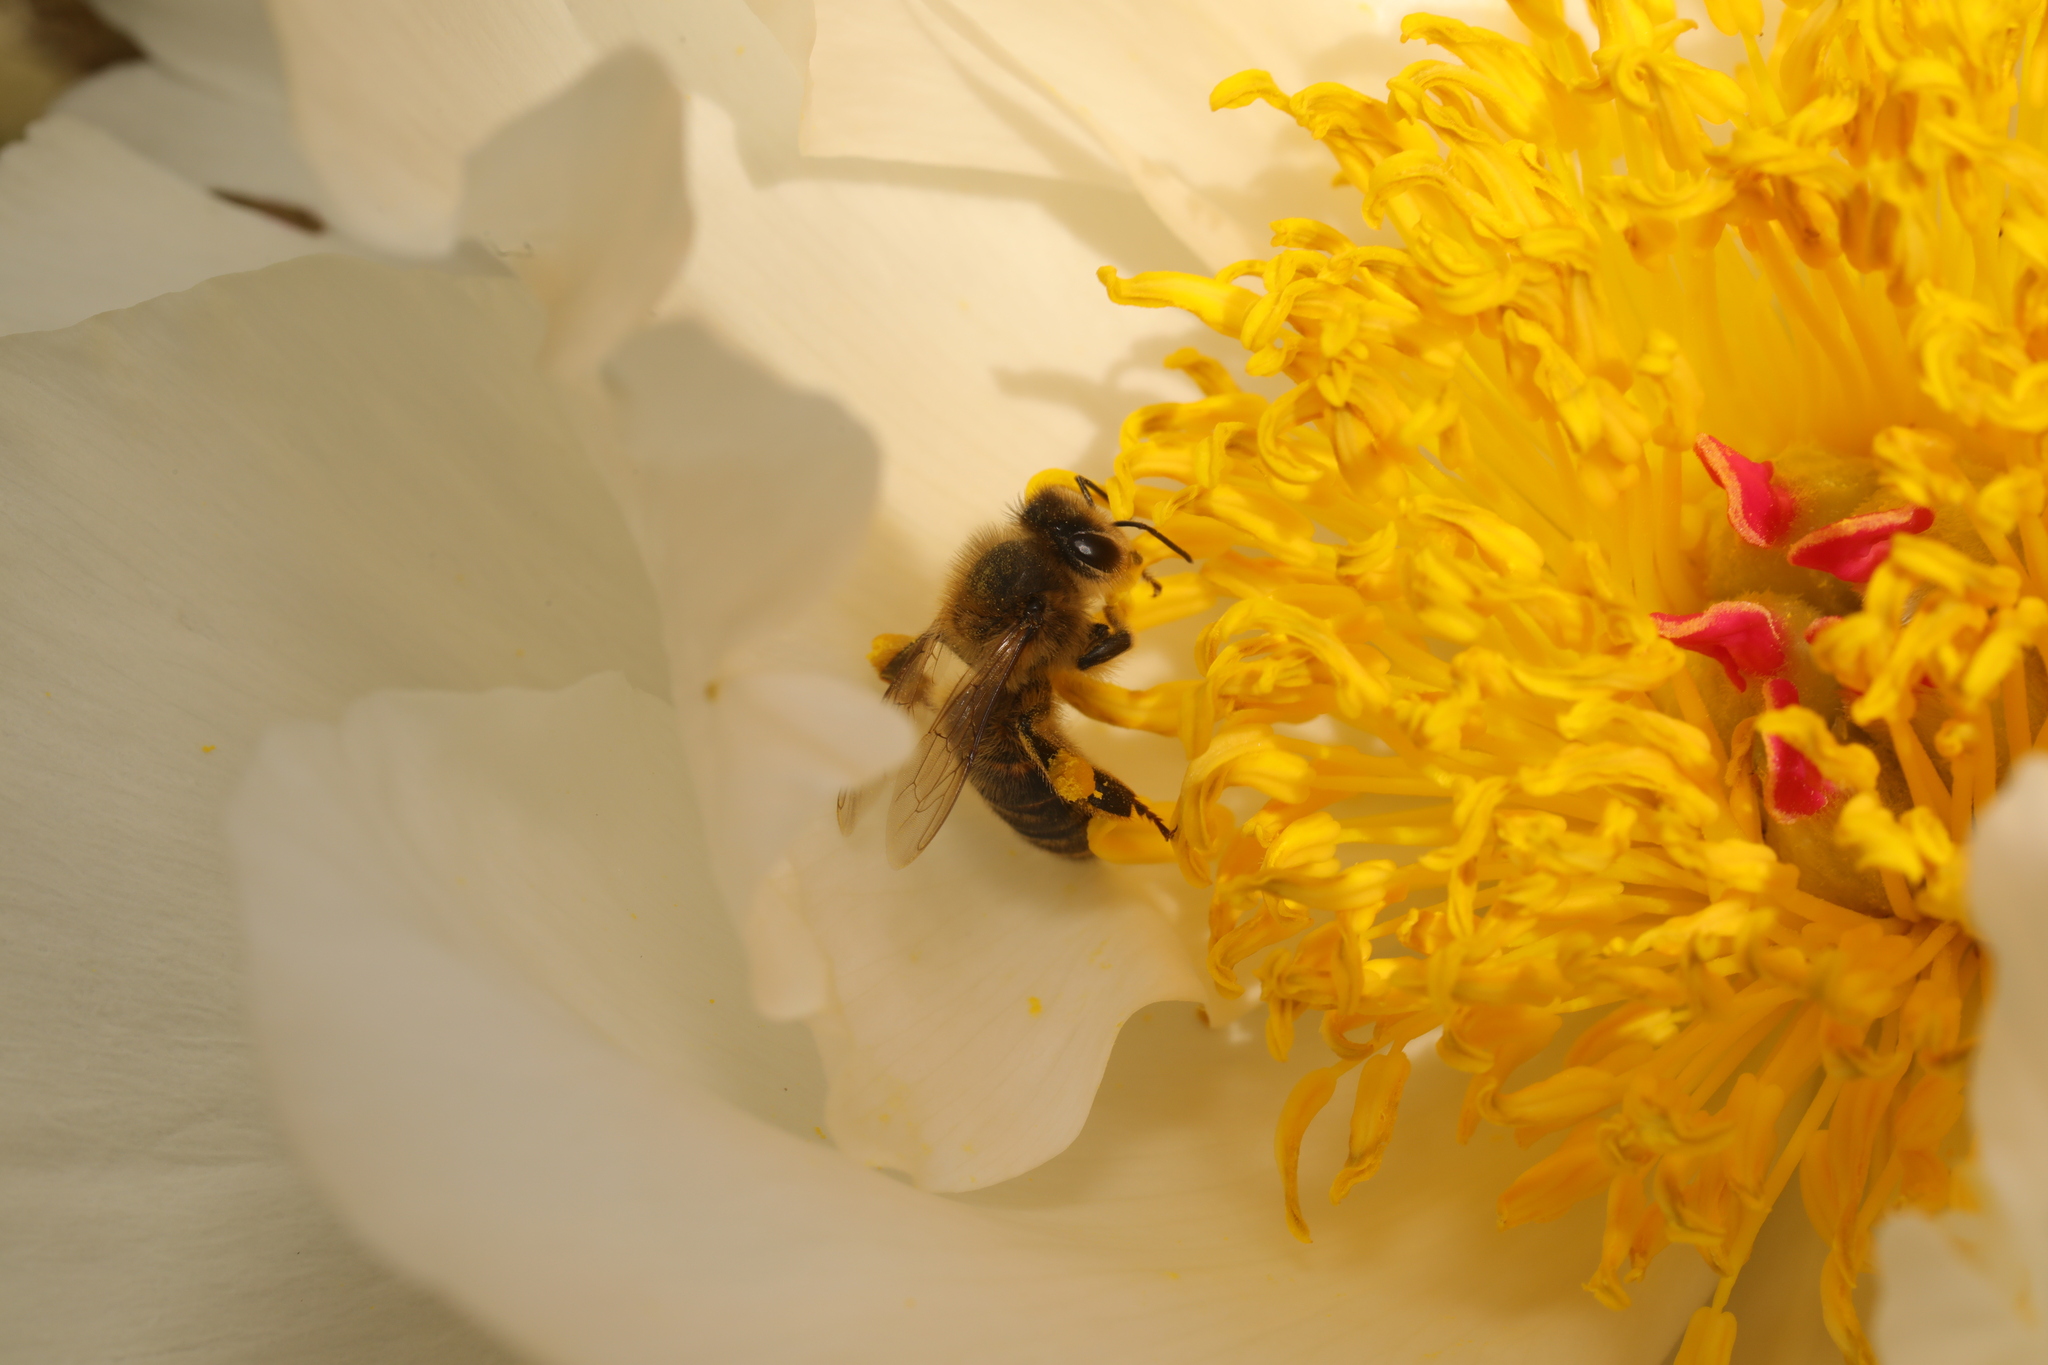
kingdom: Animalia
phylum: Arthropoda
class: Insecta
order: Hymenoptera
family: Apidae
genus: Apis
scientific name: Apis mellifera
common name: Honey bee
